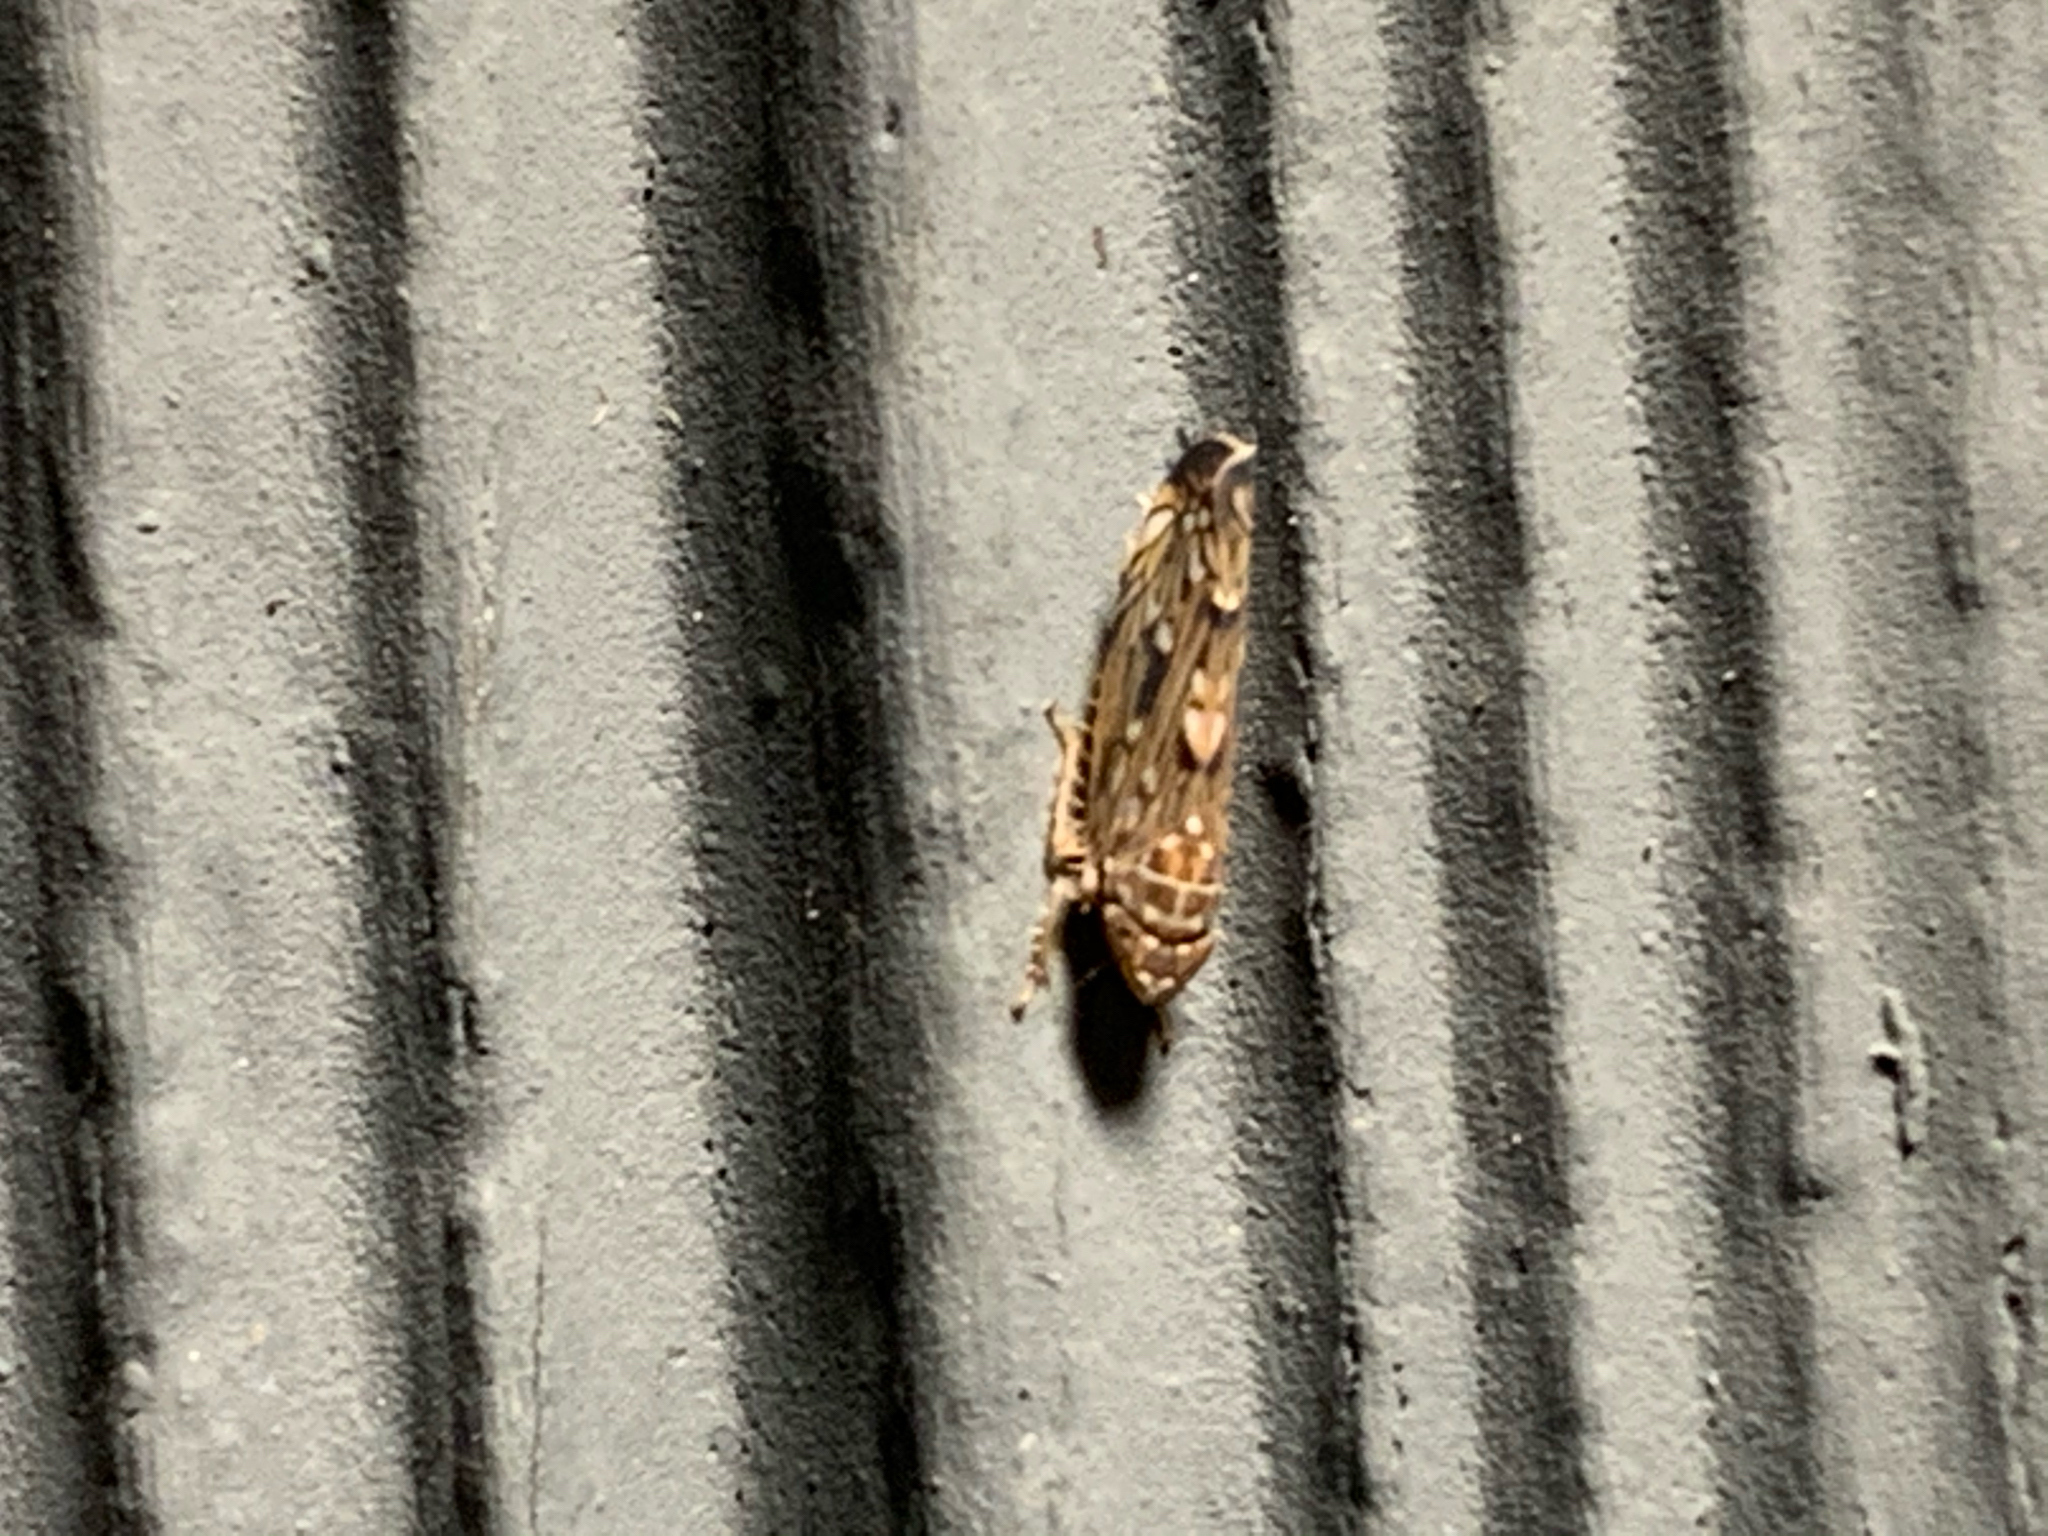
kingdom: Animalia
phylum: Arthropoda
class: Insecta
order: Hemiptera
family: Cicadellidae
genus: Scaphoideus
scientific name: Scaphoideus
